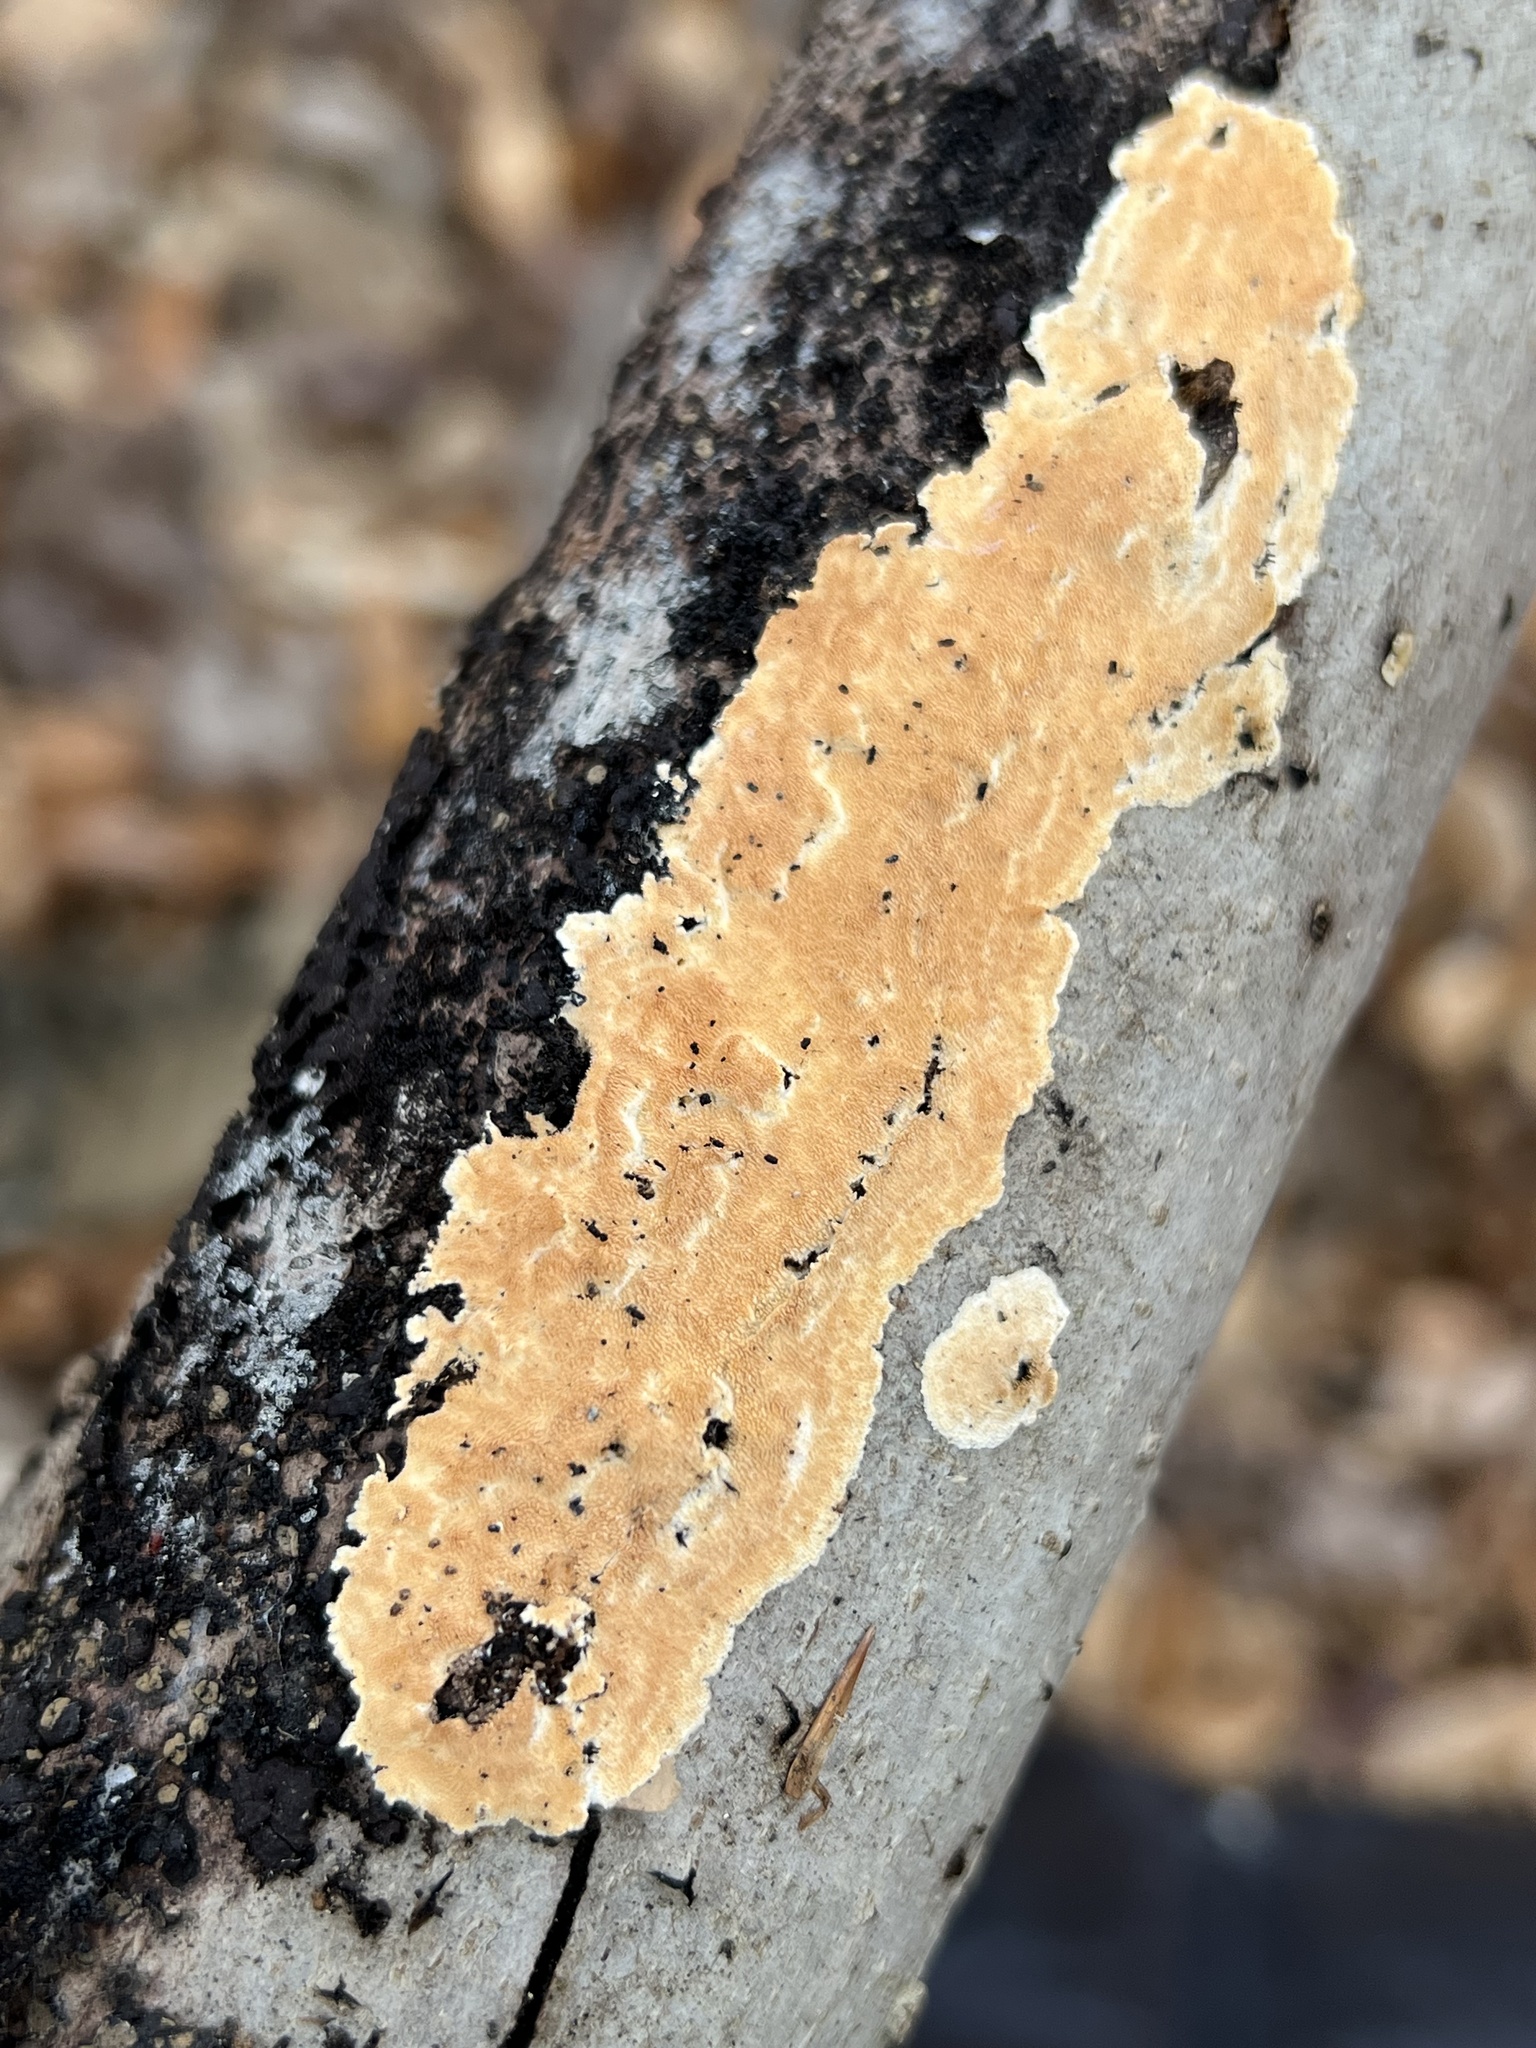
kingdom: Fungi
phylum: Basidiomycota
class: Agaricomycetes
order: Polyporales
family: Steccherinaceae
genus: Steccherinum
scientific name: Steccherinum ochraceum
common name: Ochre spreading tooth
